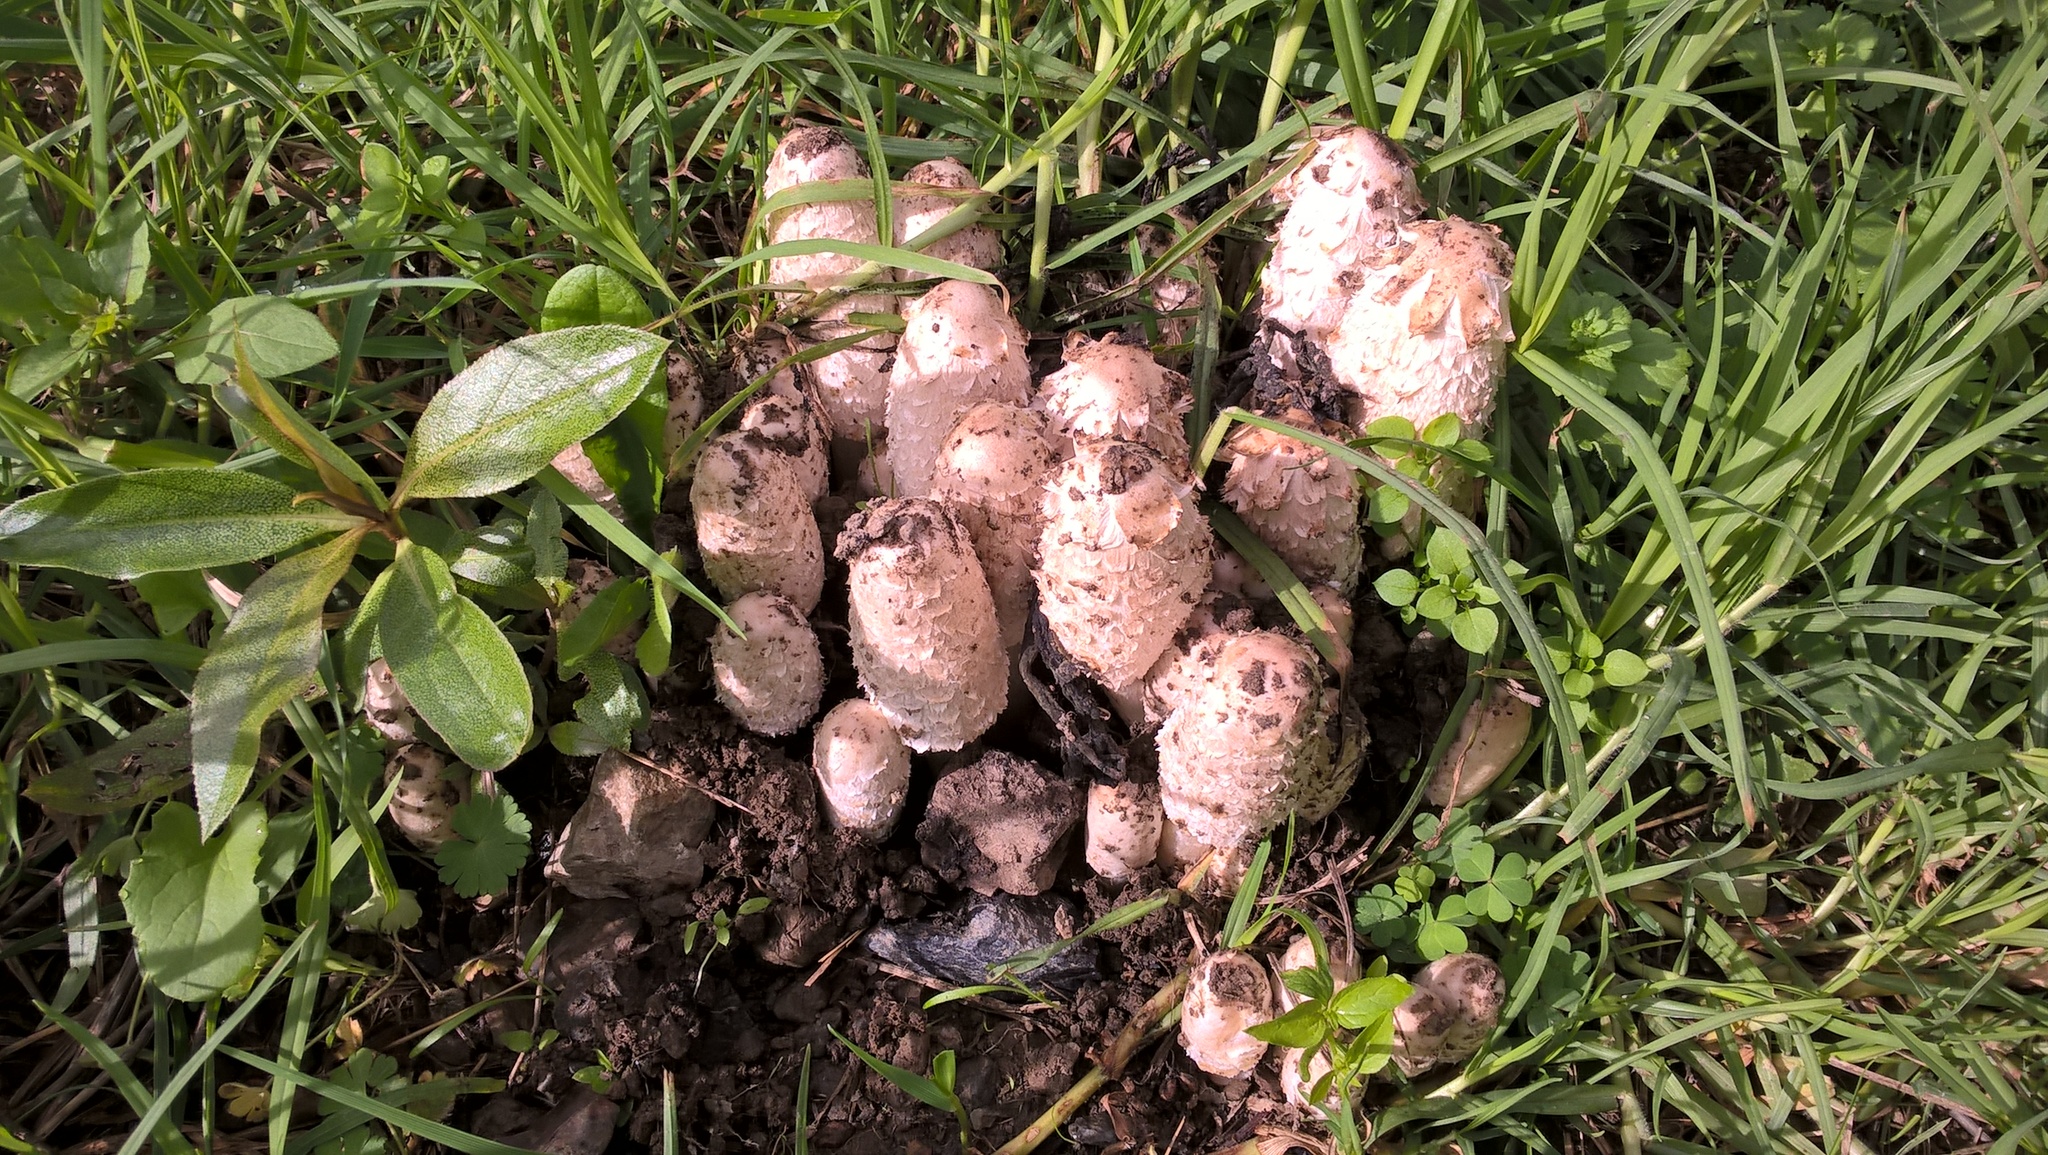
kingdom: Fungi
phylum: Basidiomycota
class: Agaricomycetes
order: Agaricales
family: Agaricaceae
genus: Coprinus
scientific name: Coprinus comatus
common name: Lawyer's wig
